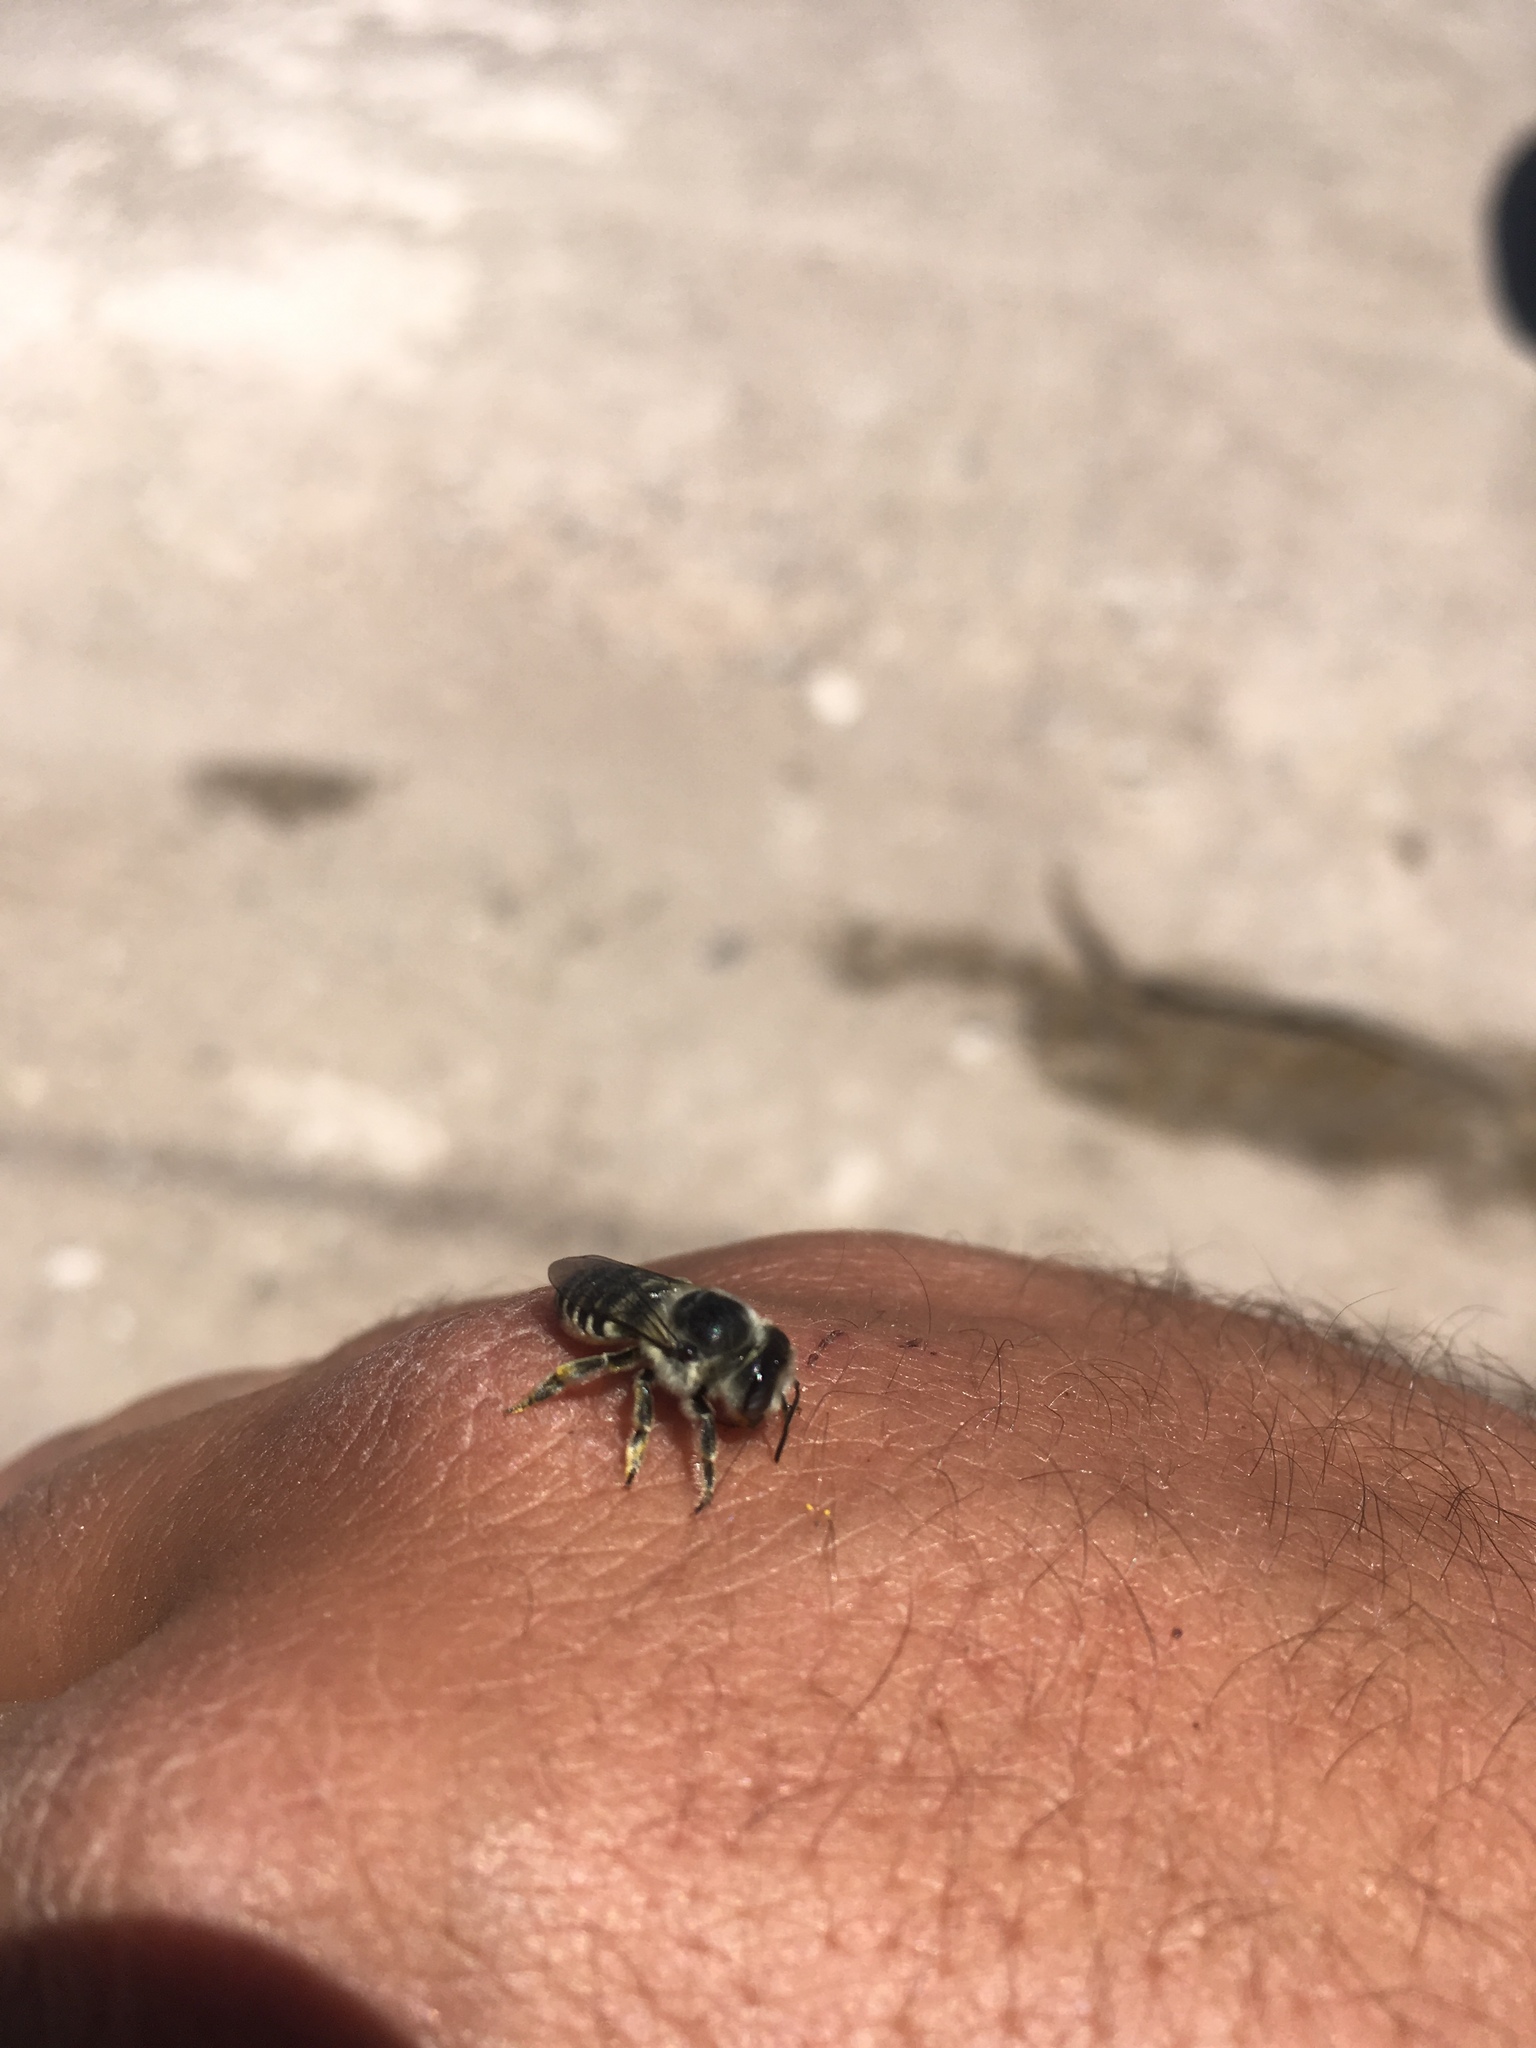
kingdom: Animalia
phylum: Arthropoda
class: Insecta
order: Hymenoptera
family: Megachilidae
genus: Megachile
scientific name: Megachile
